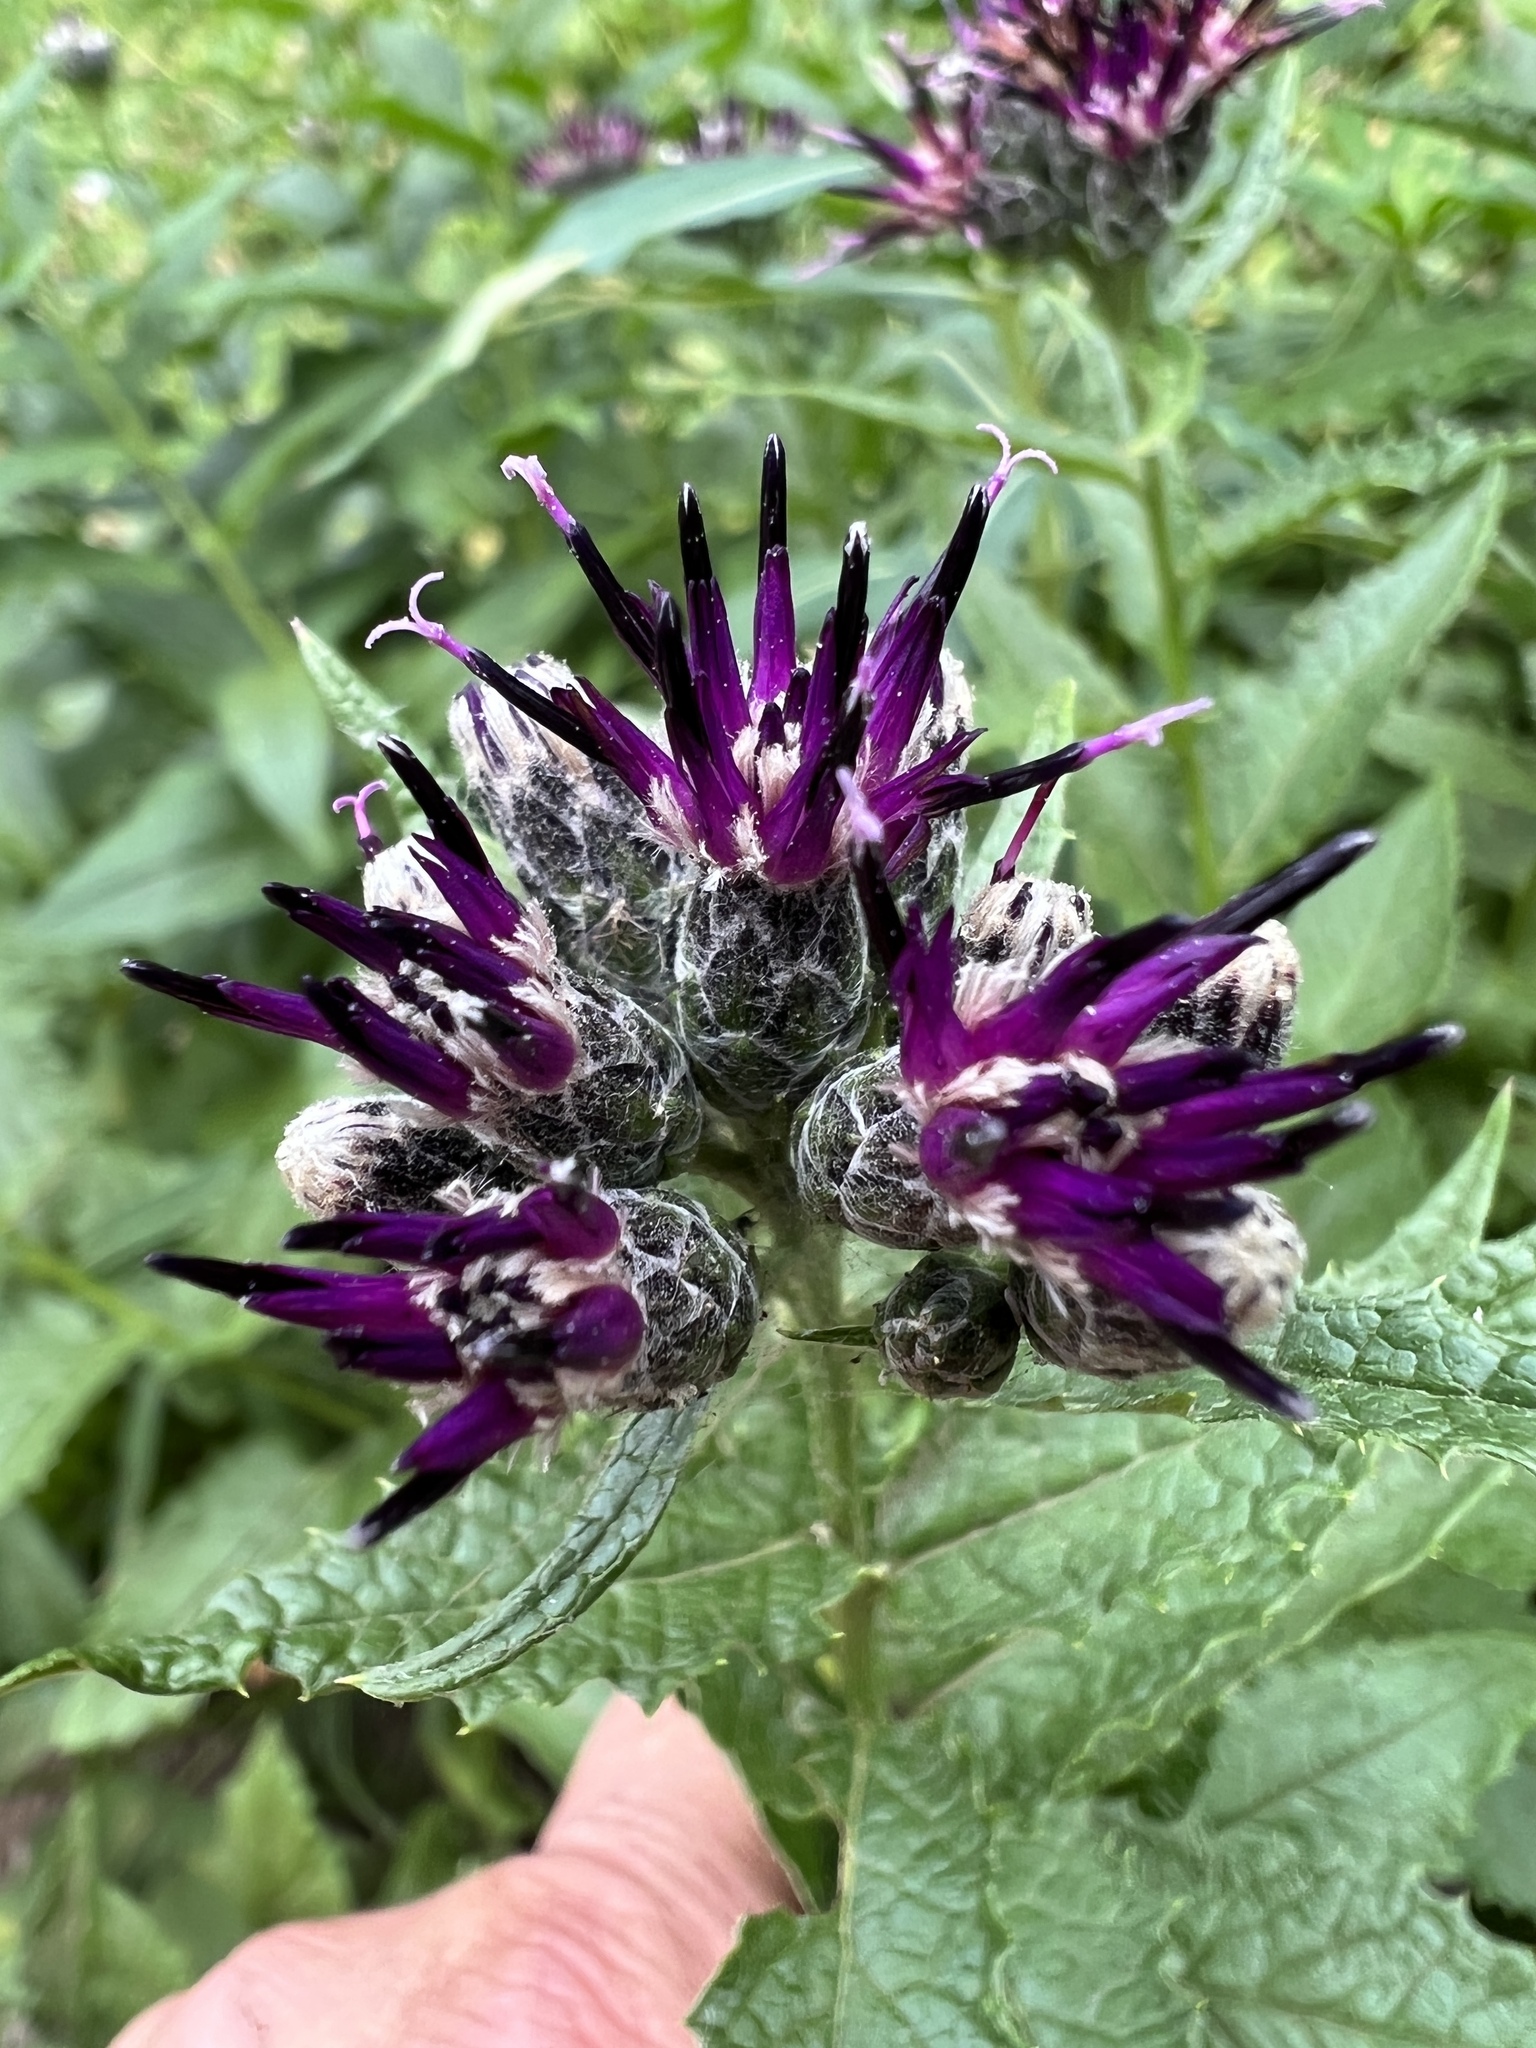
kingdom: Plantae
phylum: Tracheophyta
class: Magnoliopsida
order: Asterales
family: Asteraceae
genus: Saussurea
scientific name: Saussurea americana
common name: American saw-wort
